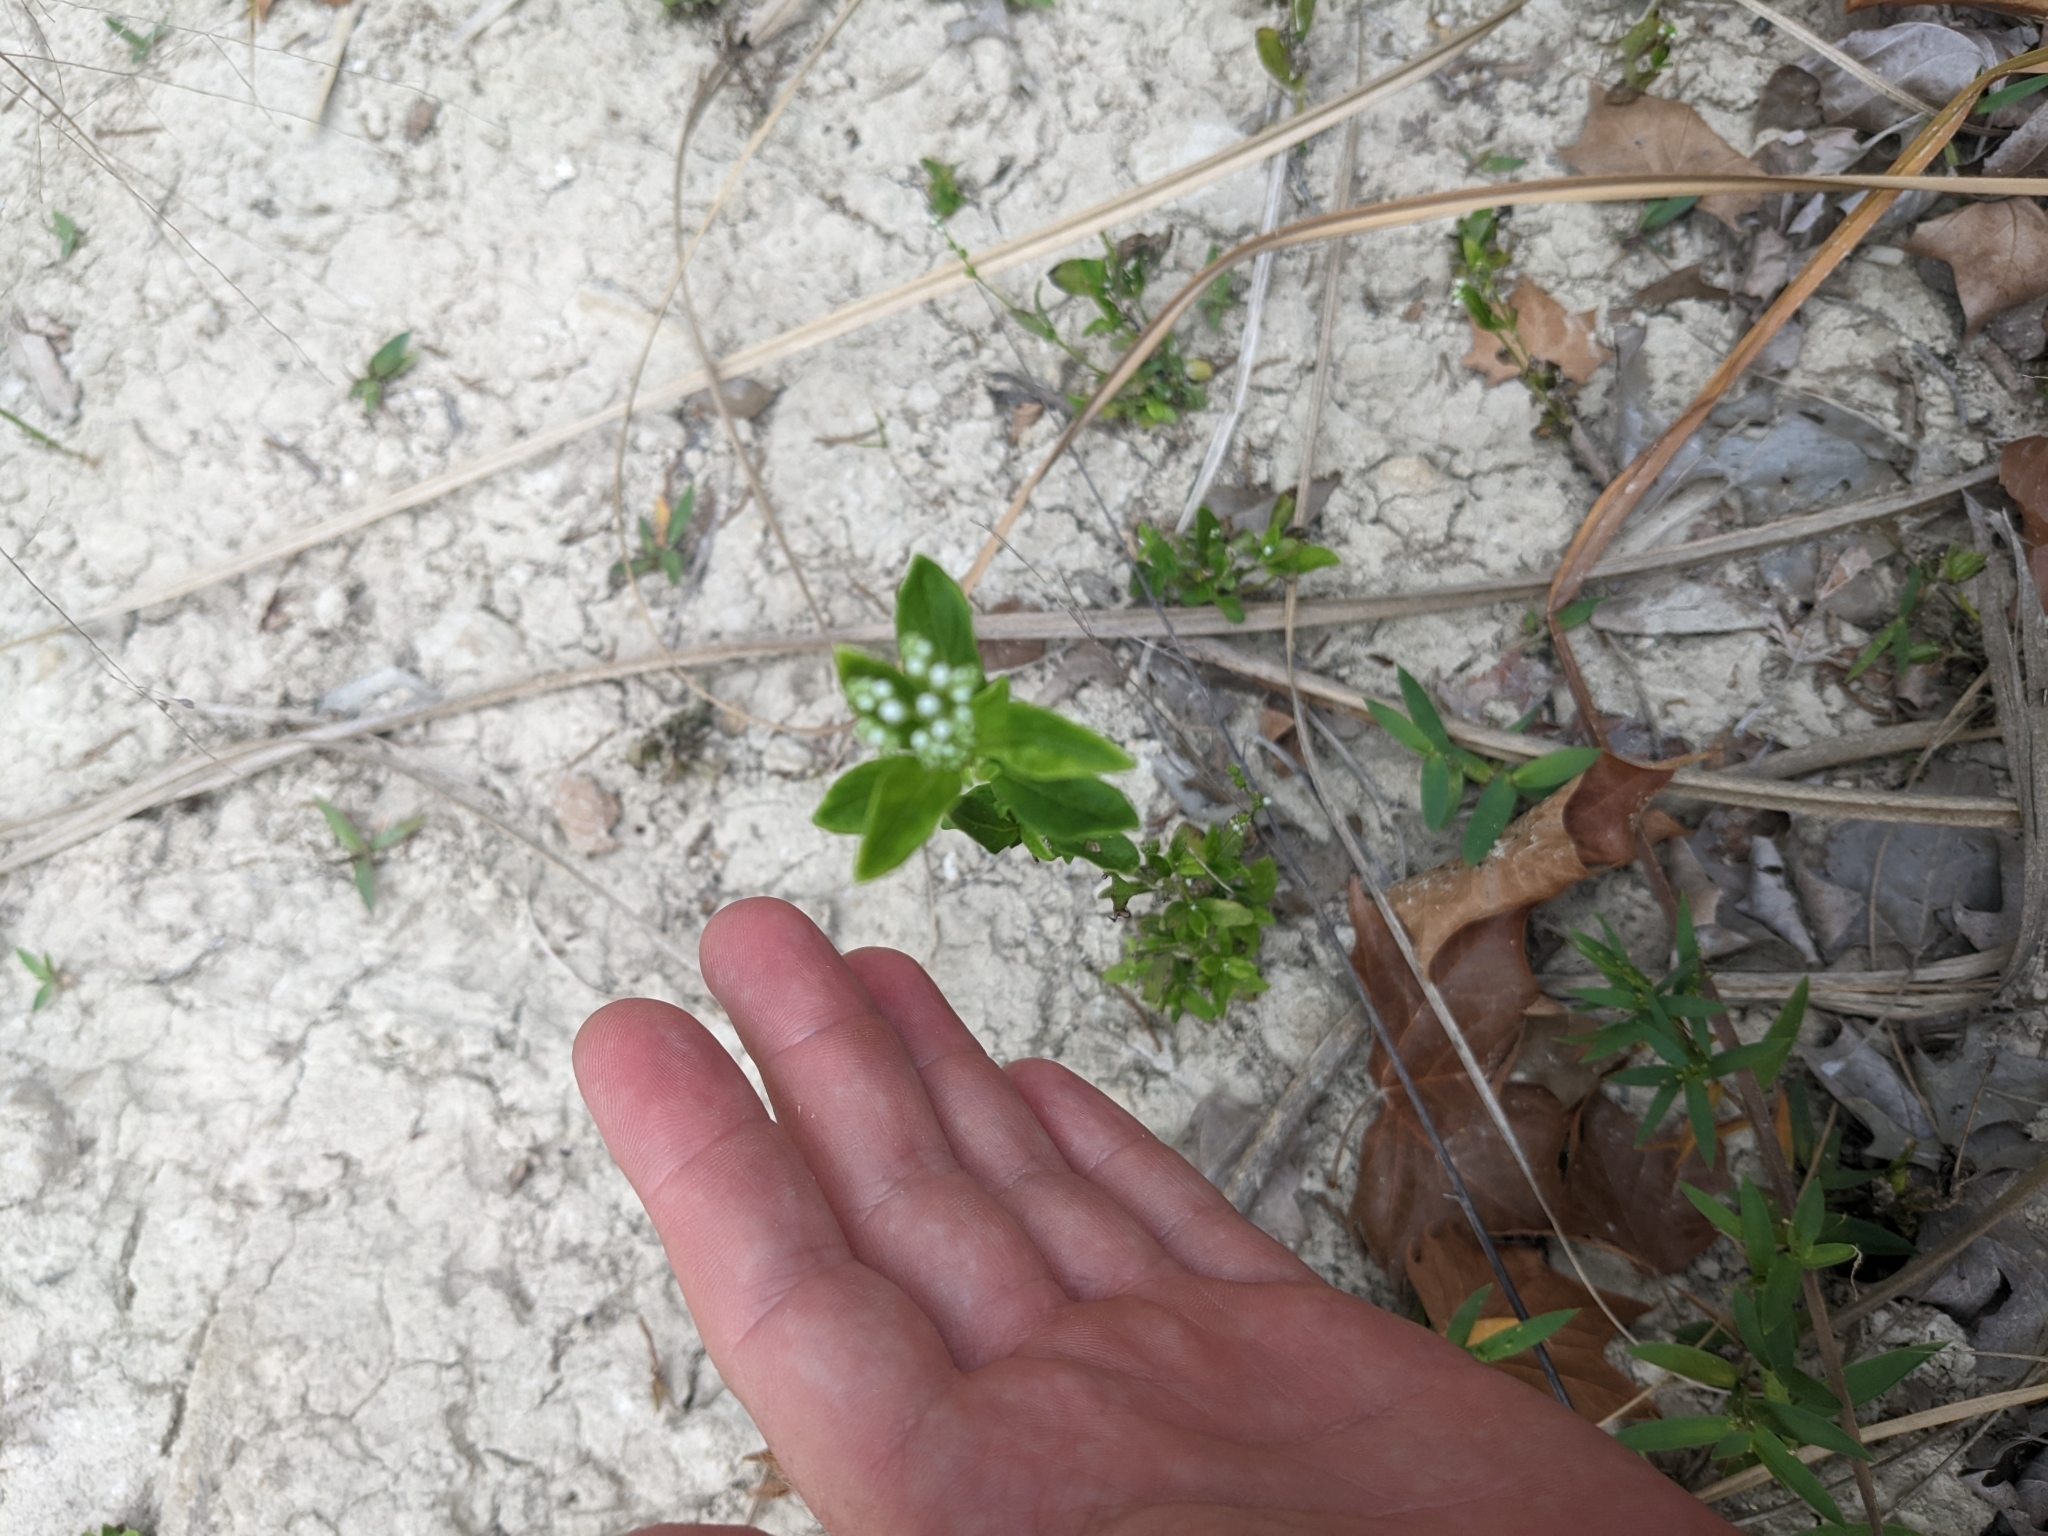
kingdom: Plantae
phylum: Tracheophyta
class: Magnoliopsida
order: Gentianales
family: Loganiaceae
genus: Mitreola
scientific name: Mitreola petiolata
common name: Lax hornpod
